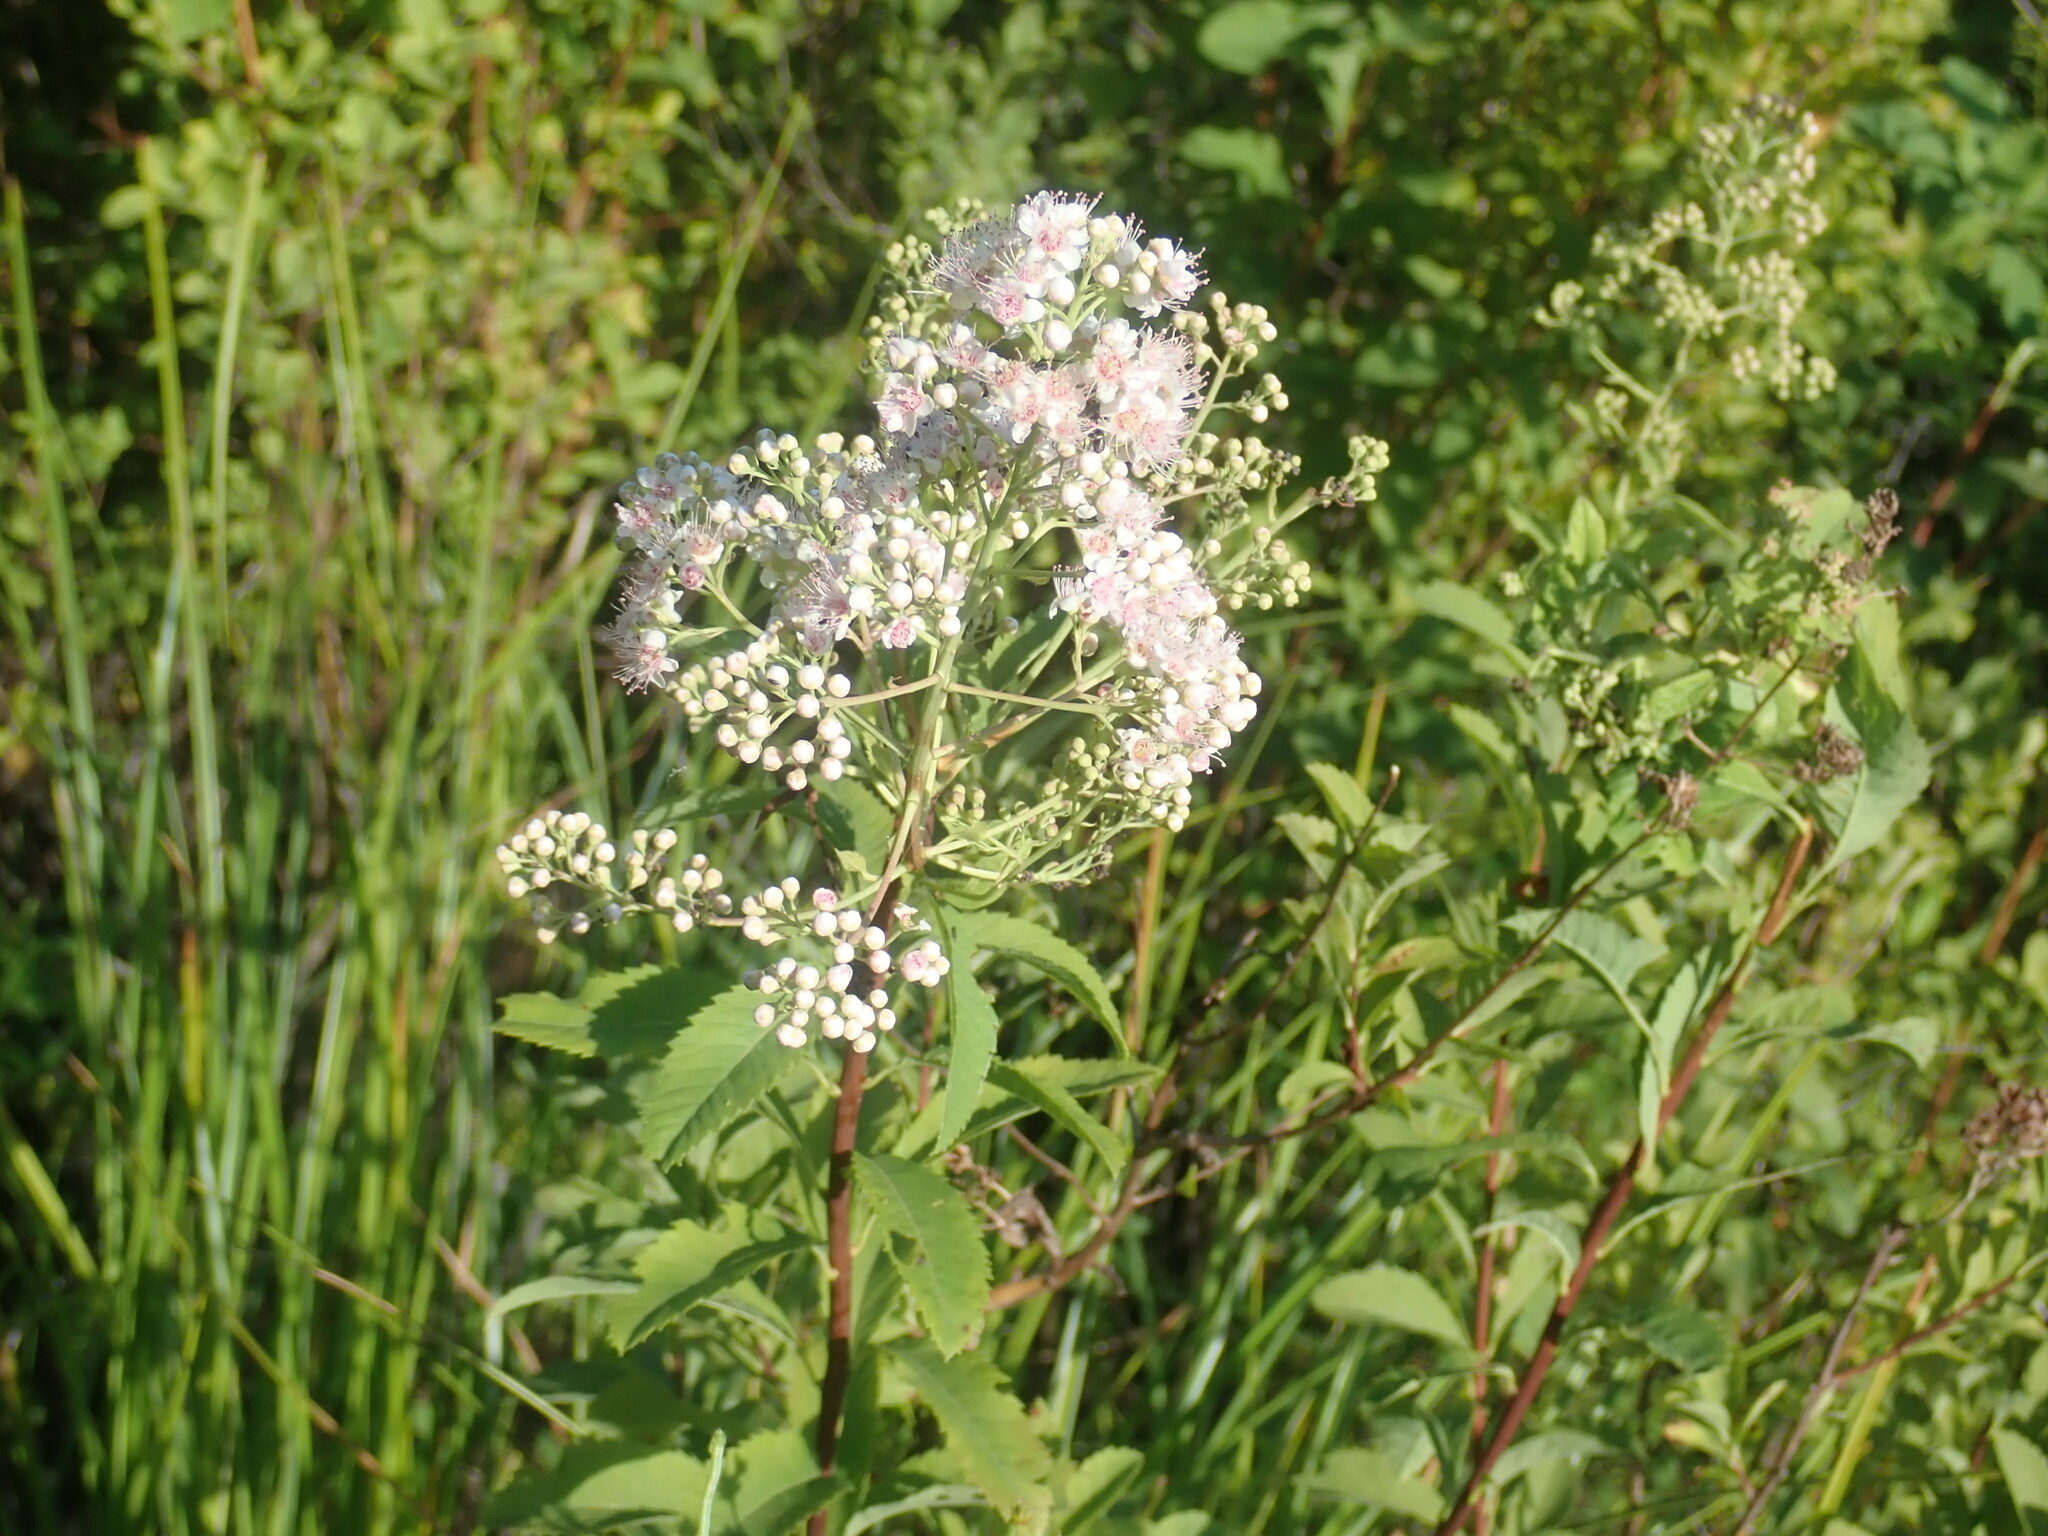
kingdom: Plantae
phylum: Tracheophyta
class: Magnoliopsida
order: Rosales
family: Rosaceae
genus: Spiraea
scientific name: Spiraea alba
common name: Pale bridewort
